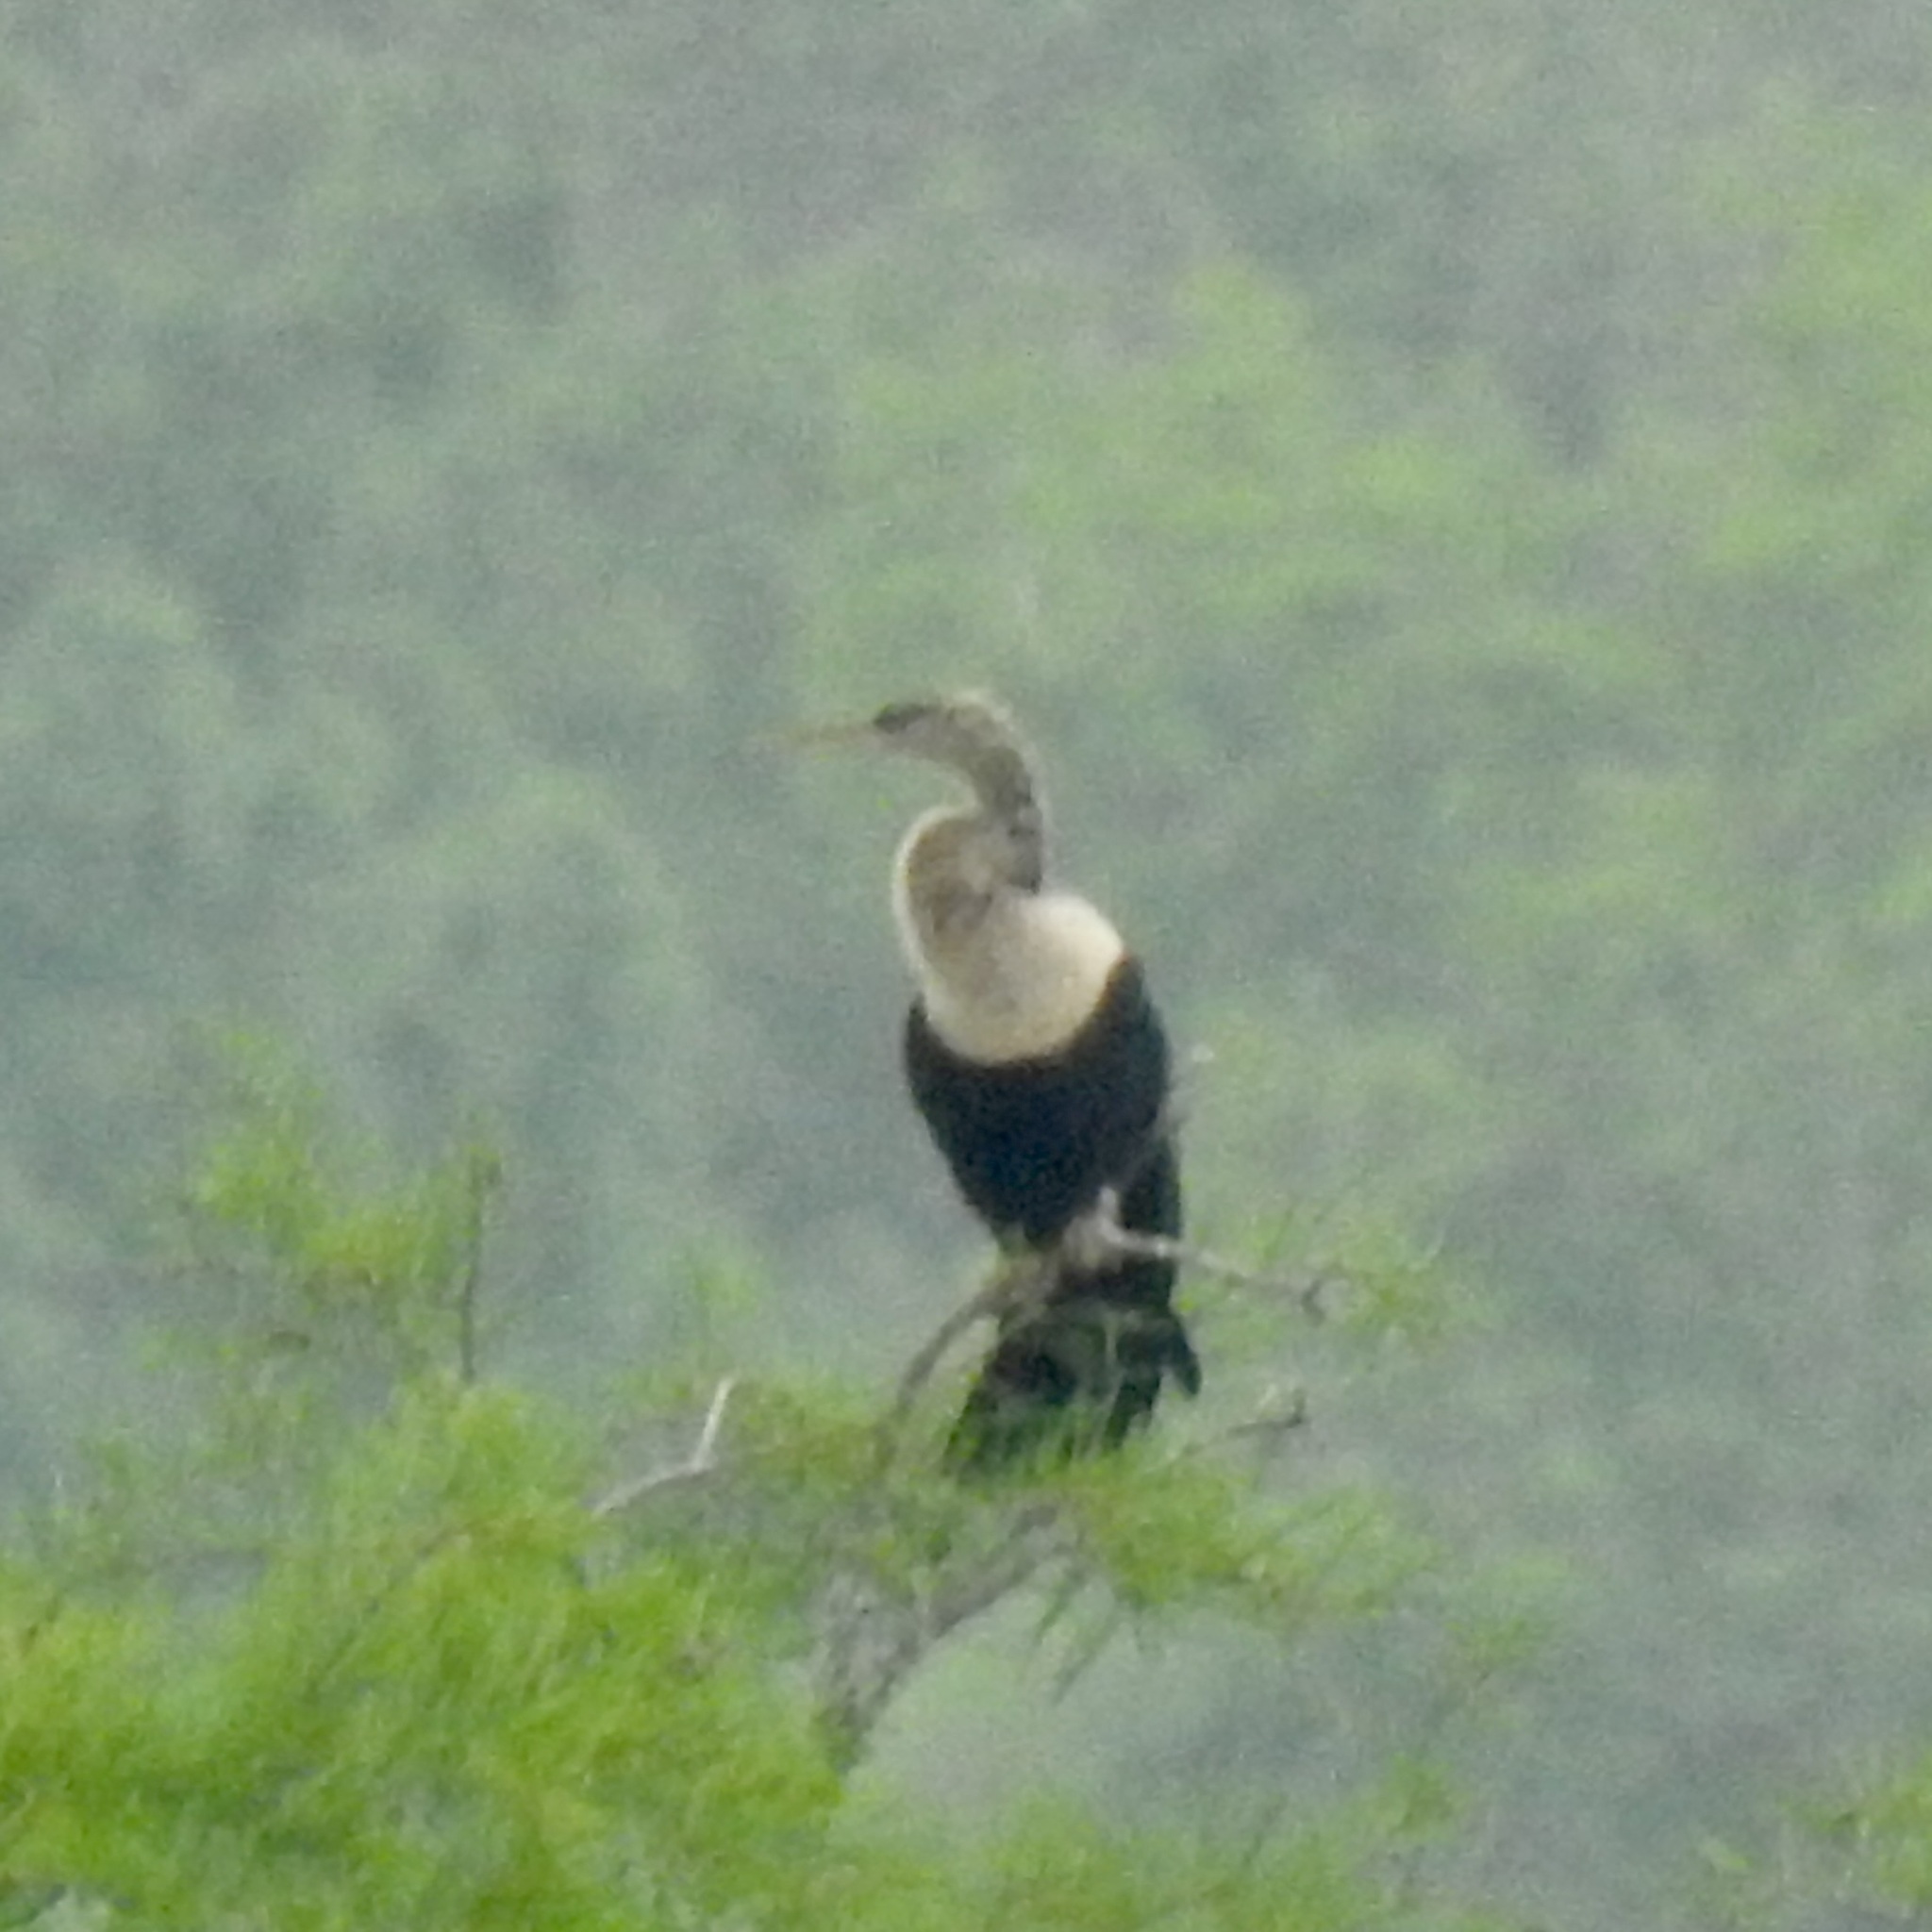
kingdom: Animalia
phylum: Chordata
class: Aves
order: Suliformes
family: Anhingidae
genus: Anhinga
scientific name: Anhinga anhinga
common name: Anhinga
